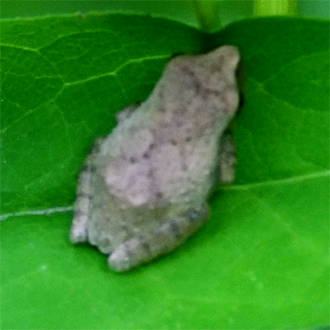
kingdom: Animalia
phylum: Chordata
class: Amphibia
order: Anura
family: Hylidae
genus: Pseudacris
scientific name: Pseudacris crucifer
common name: Spring peeper
